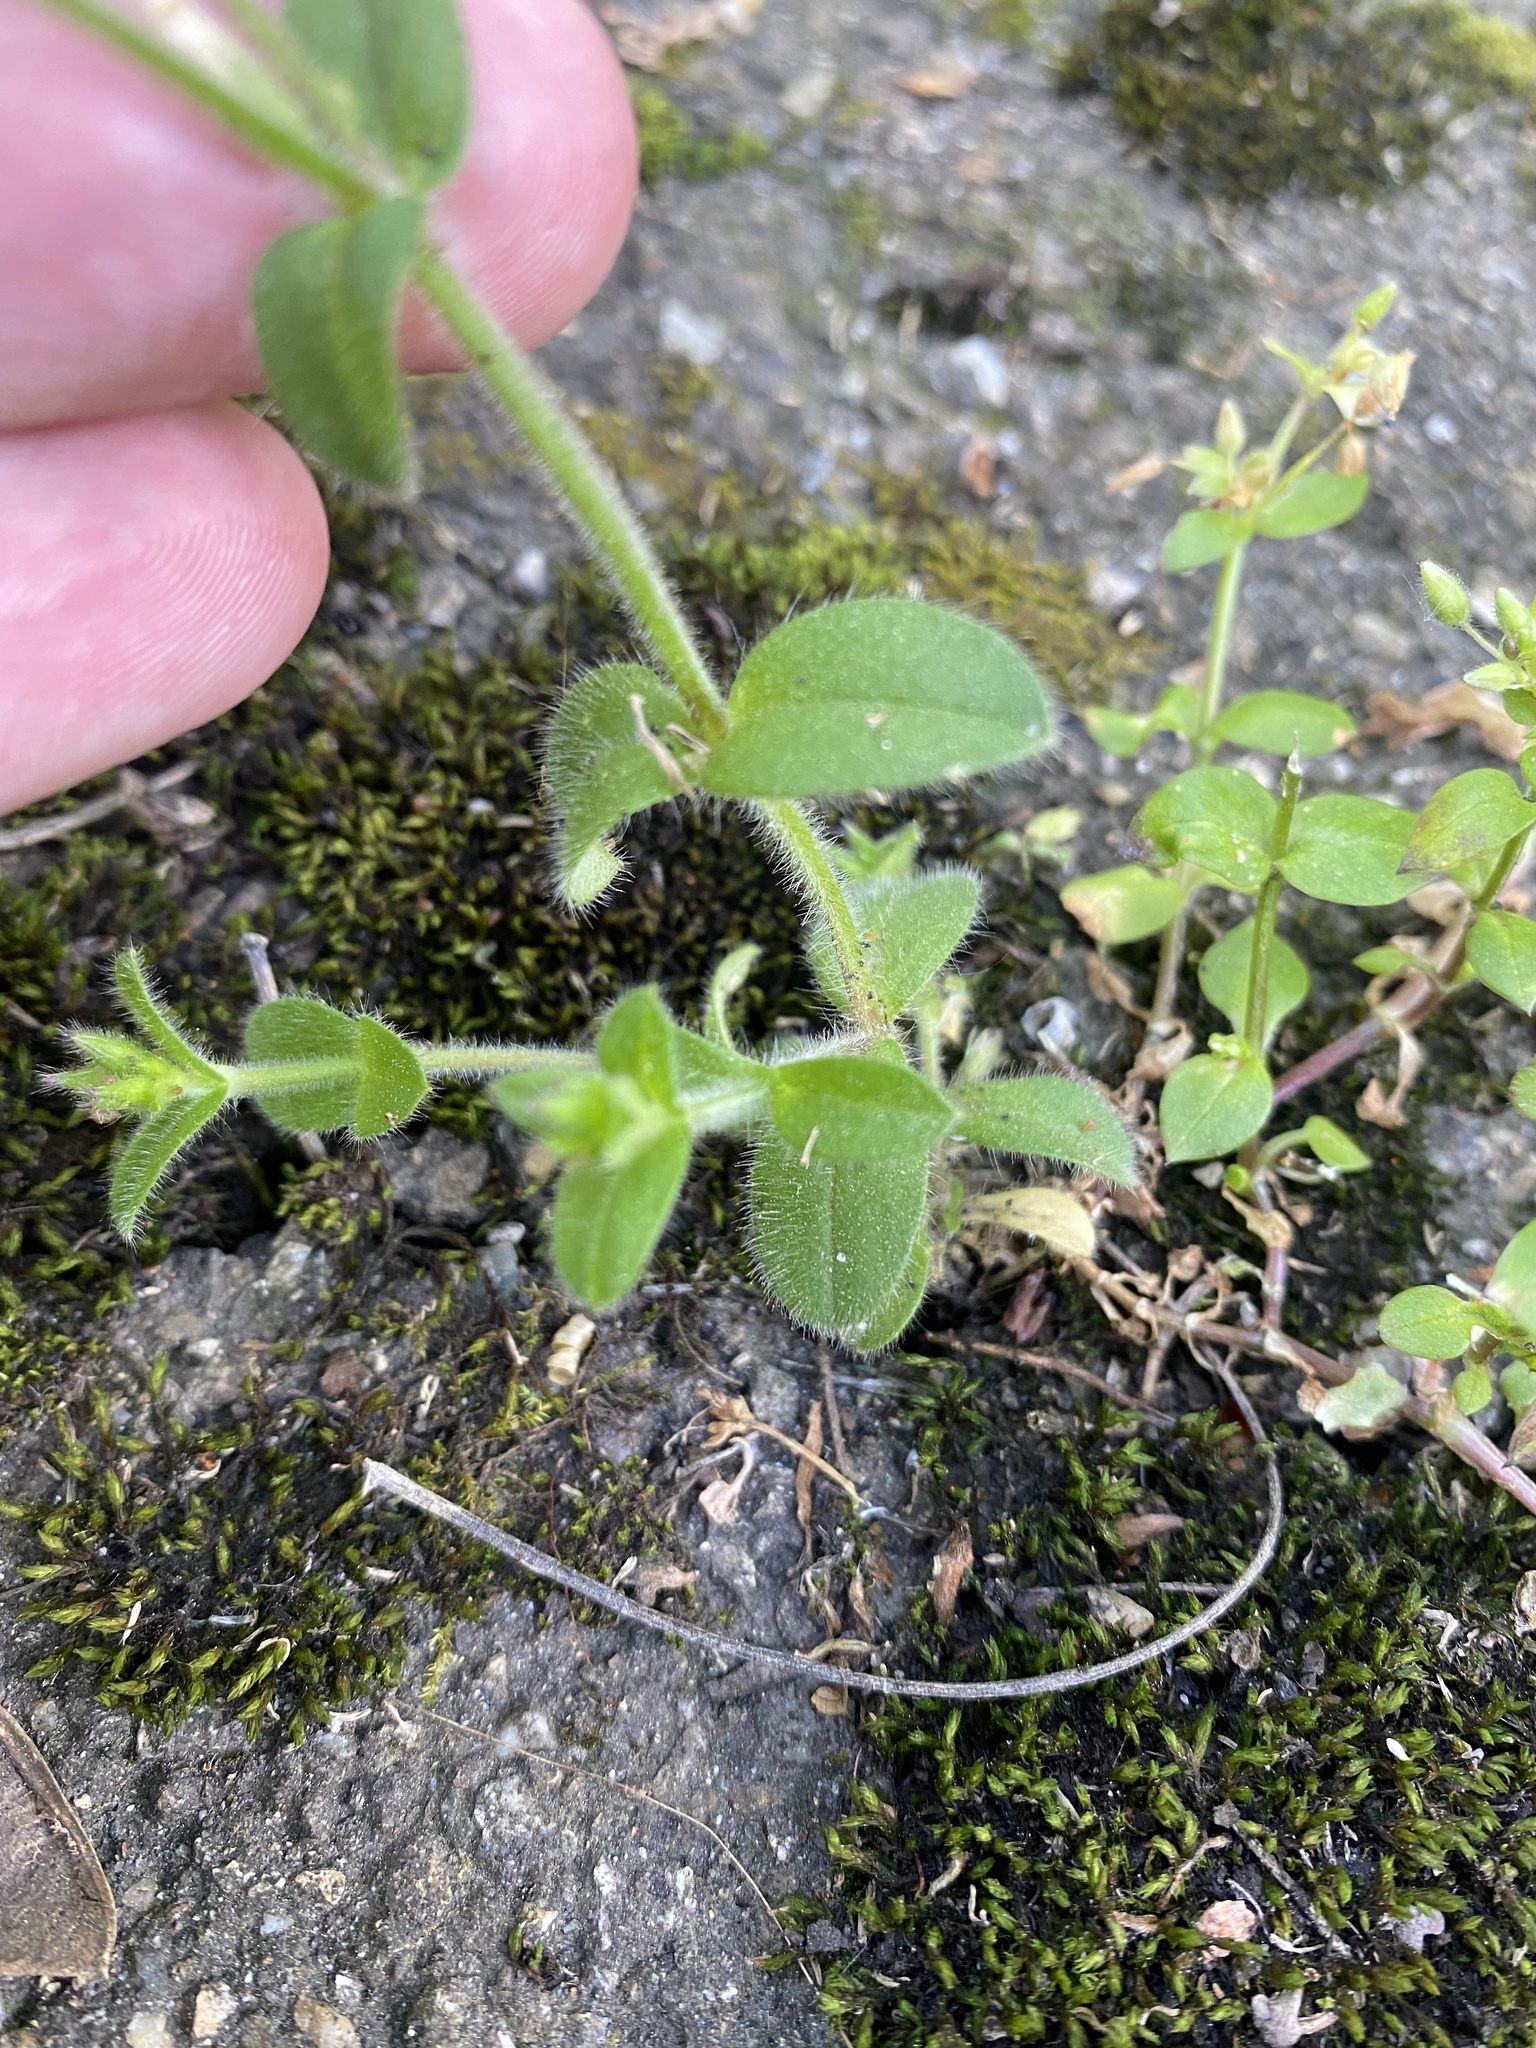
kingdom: Plantae
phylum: Tracheophyta
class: Magnoliopsida
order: Caryophyllales
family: Caryophyllaceae
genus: Cerastium
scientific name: Cerastium glomeratum
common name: Sticky chickweed
